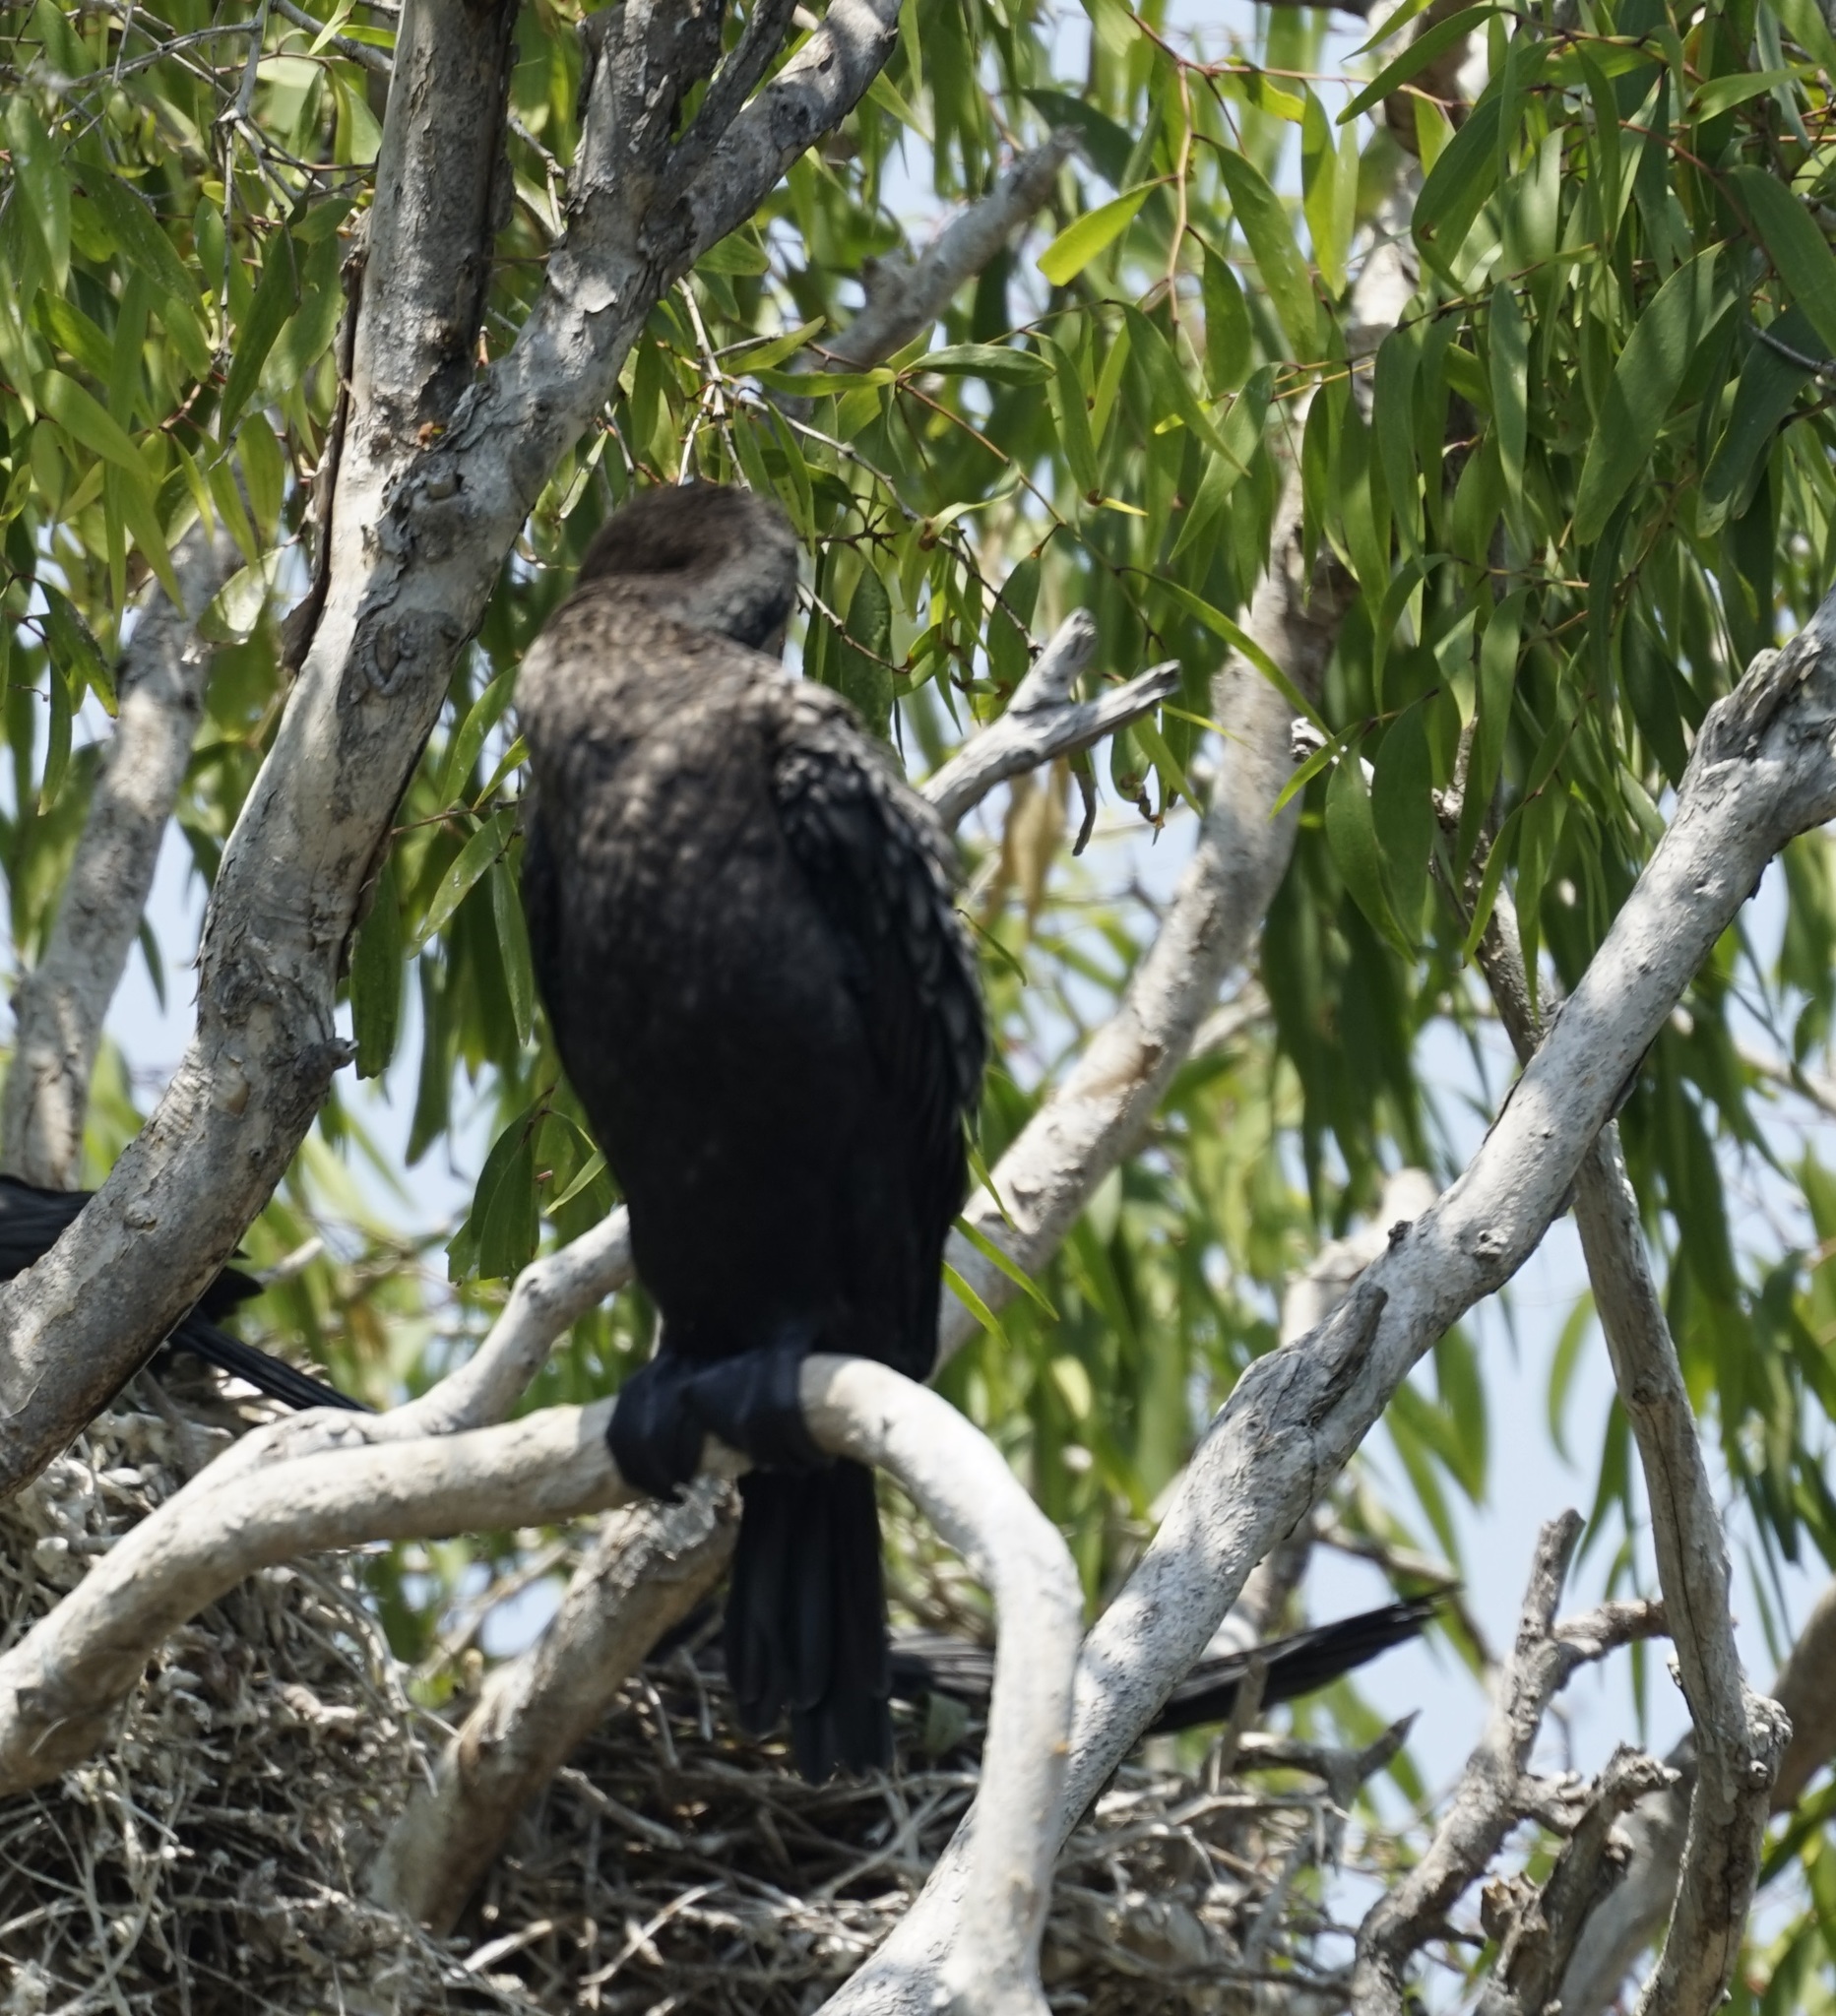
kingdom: Animalia
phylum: Chordata
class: Aves
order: Suliformes
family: Phalacrocoracidae
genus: Phalacrocorax
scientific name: Phalacrocorax sulcirostris
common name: Little black cormorant
